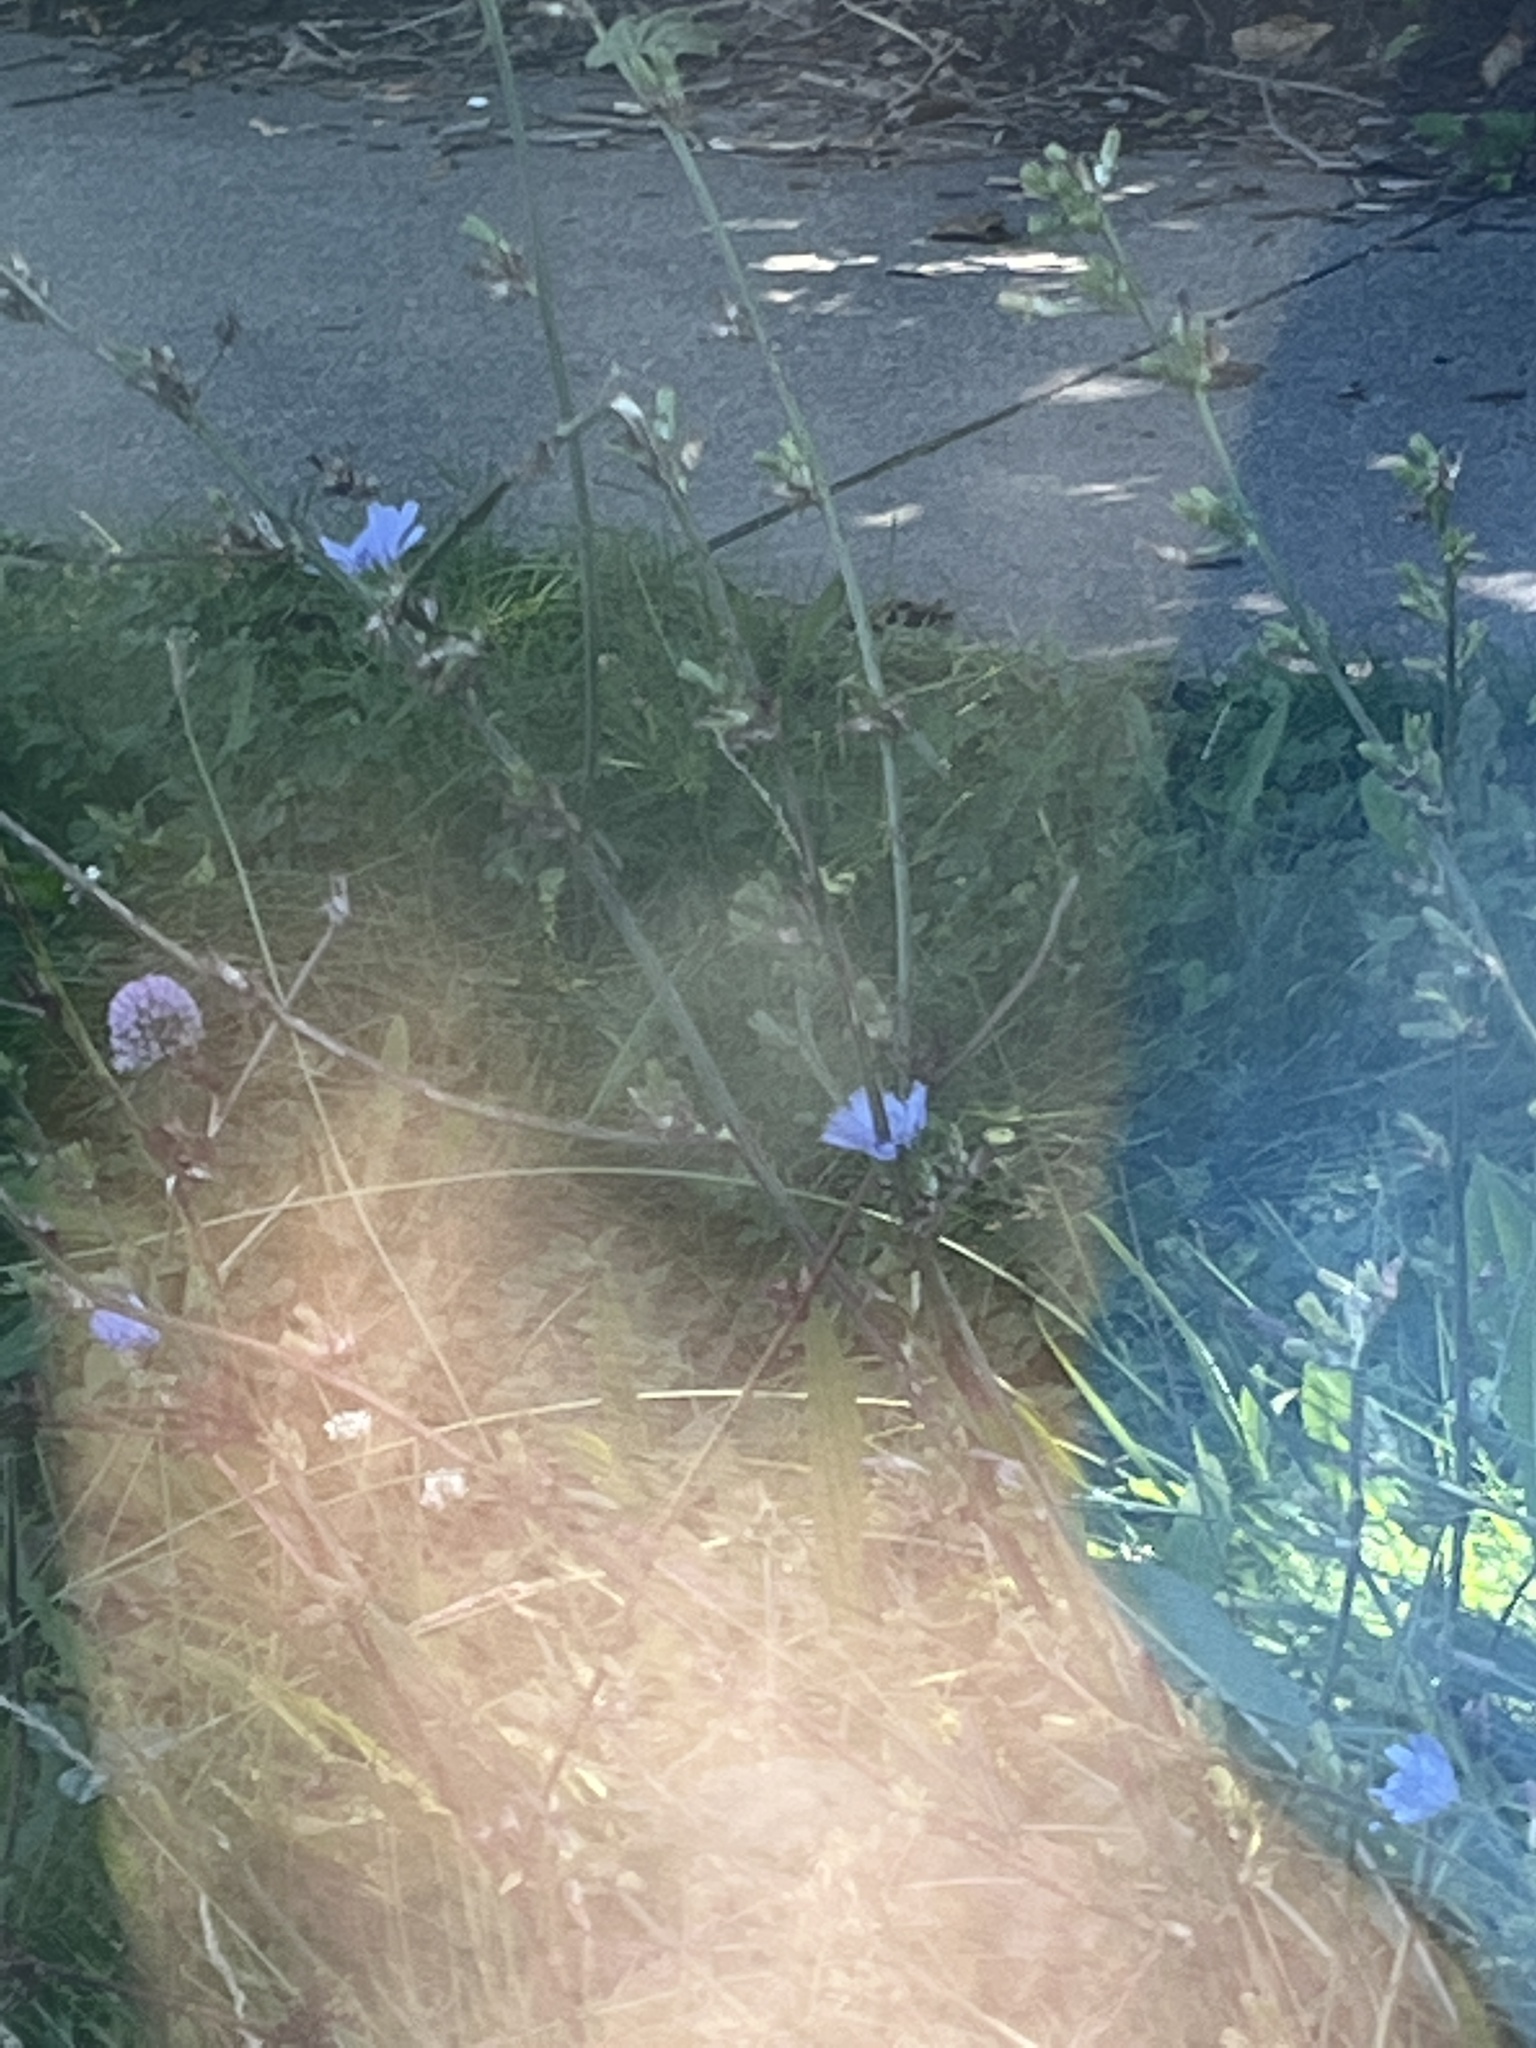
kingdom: Plantae
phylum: Tracheophyta
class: Magnoliopsida
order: Asterales
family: Asteraceae
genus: Cichorium
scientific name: Cichorium intybus
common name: Chicory
